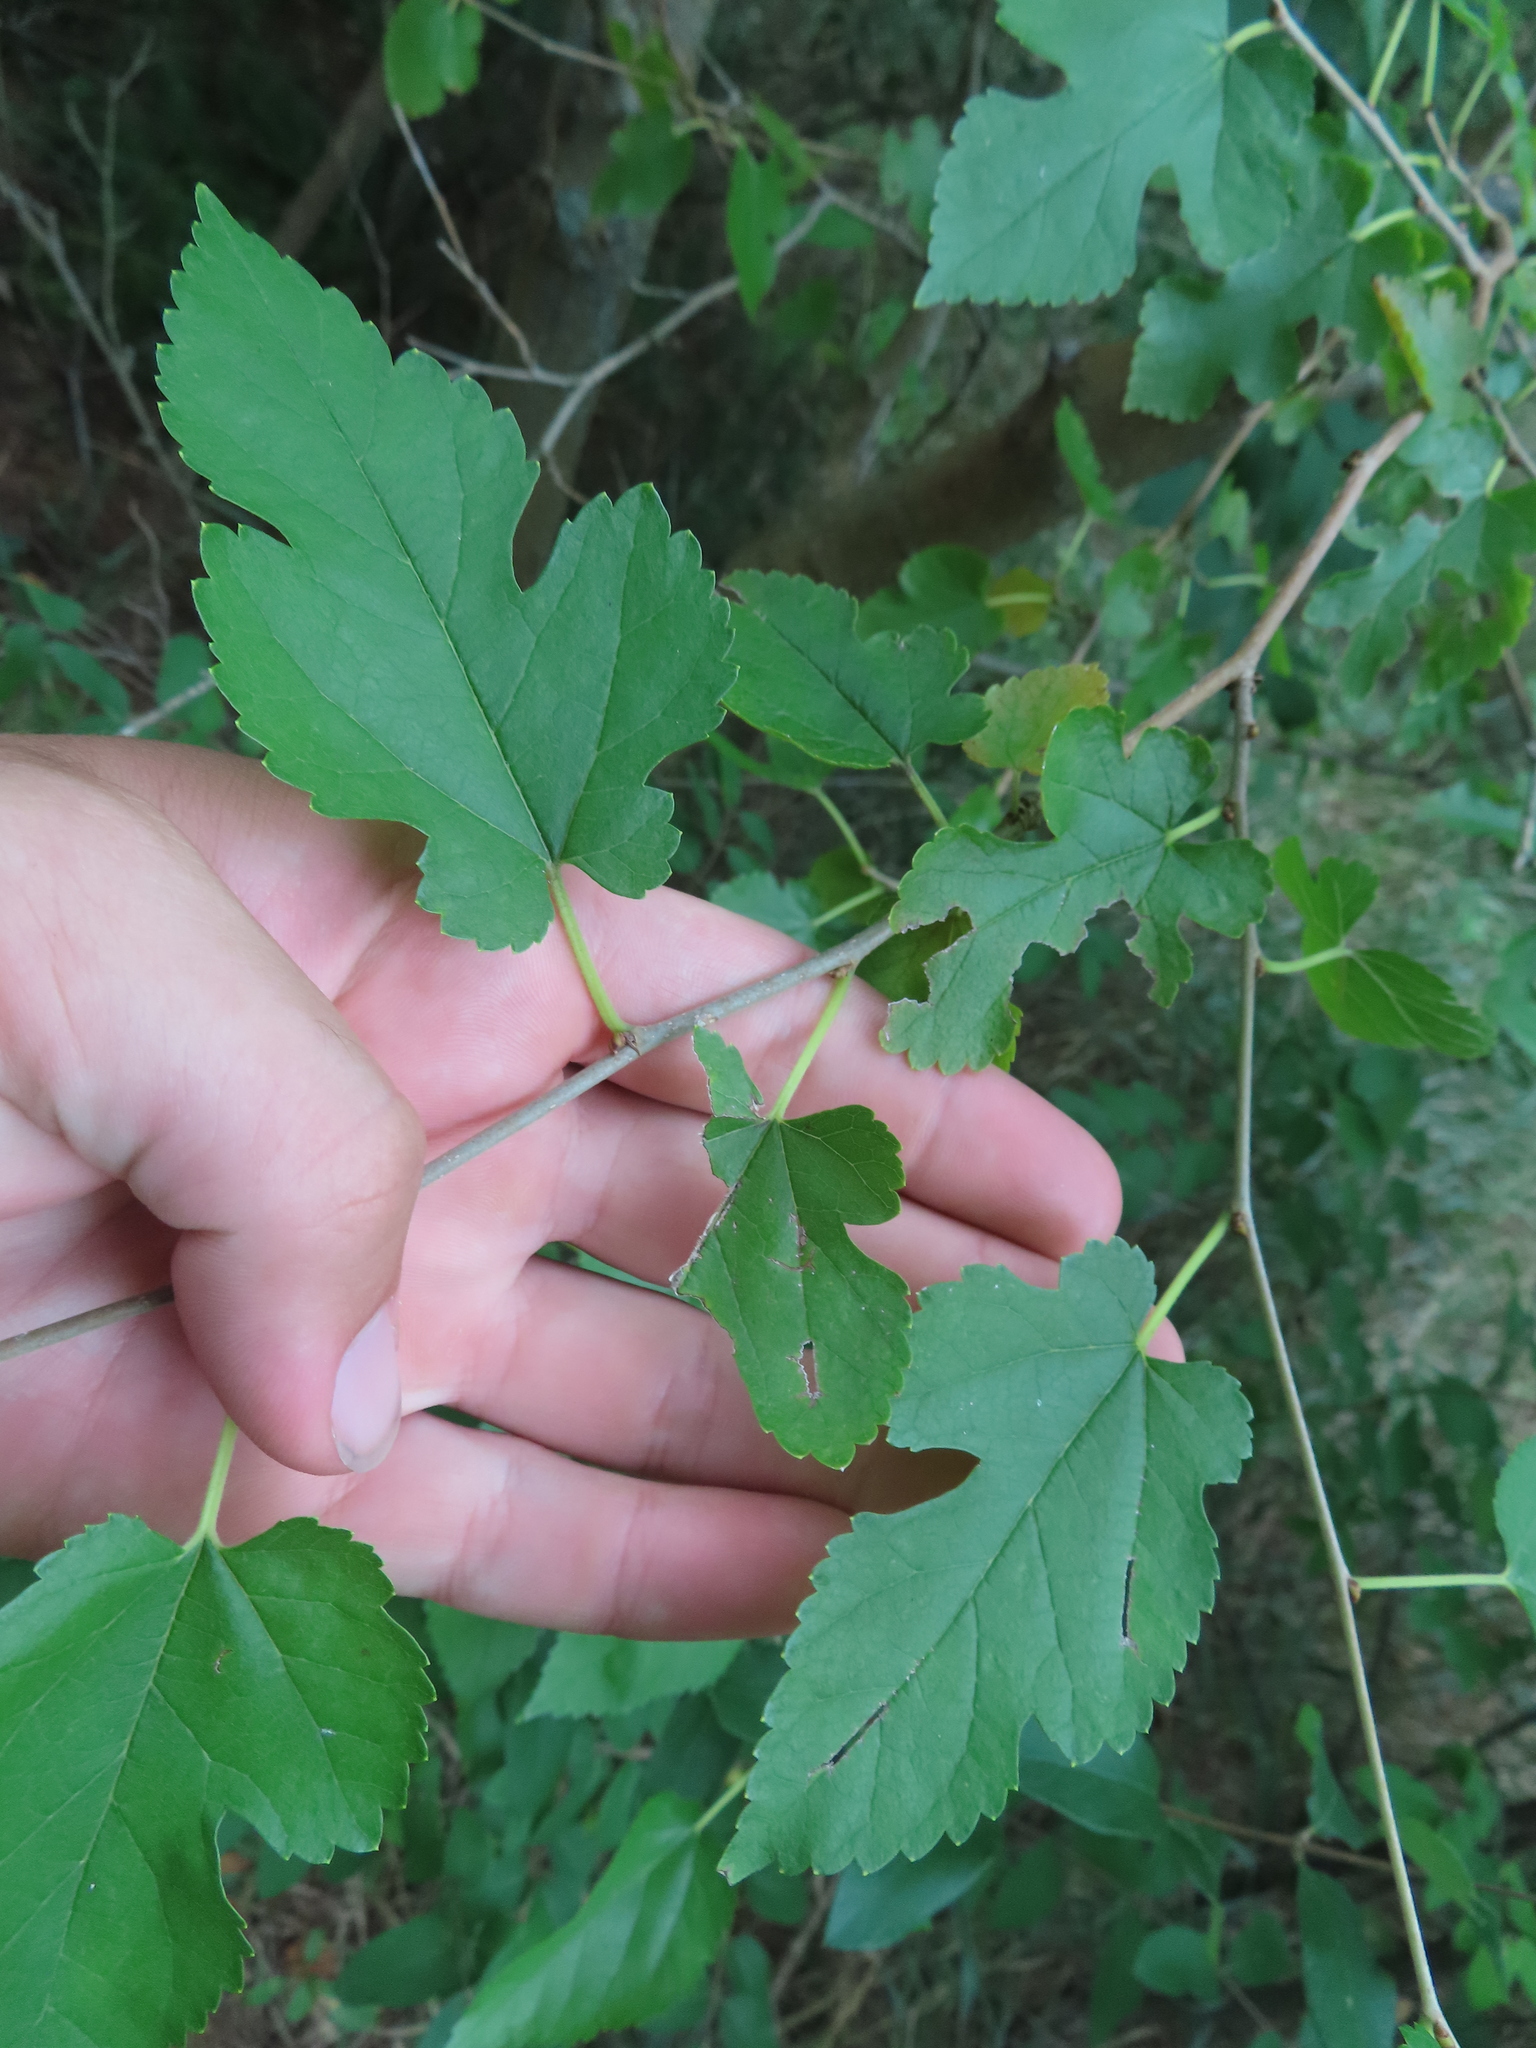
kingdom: Plantae
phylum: Tracheophyta
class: Magnoliopsida
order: Rosales
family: Moraceae
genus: Morus
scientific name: Morus alba
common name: White mulberry
